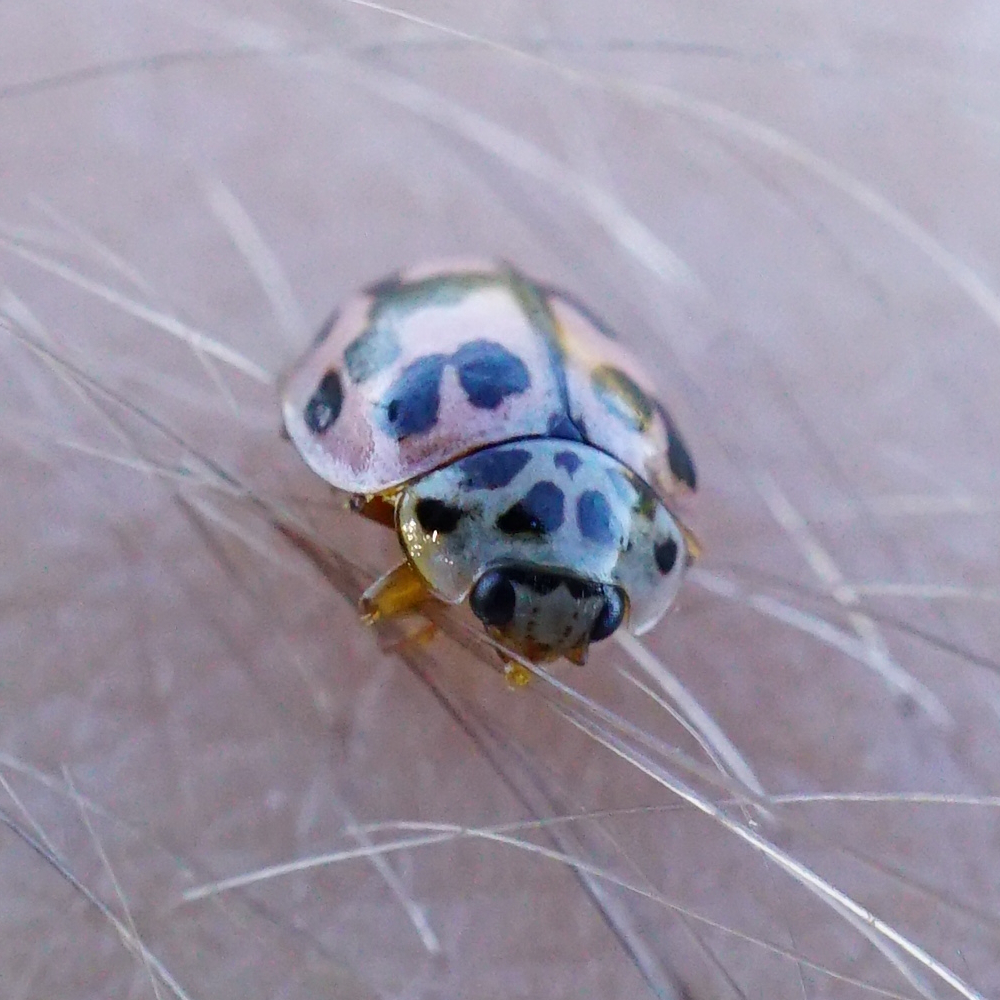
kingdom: Animalia
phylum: Arthropoda
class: Insecta
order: Coleoptera
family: Coccinellidae
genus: Oenopia
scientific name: Oenopia conglobata
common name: Ladybird beetle
